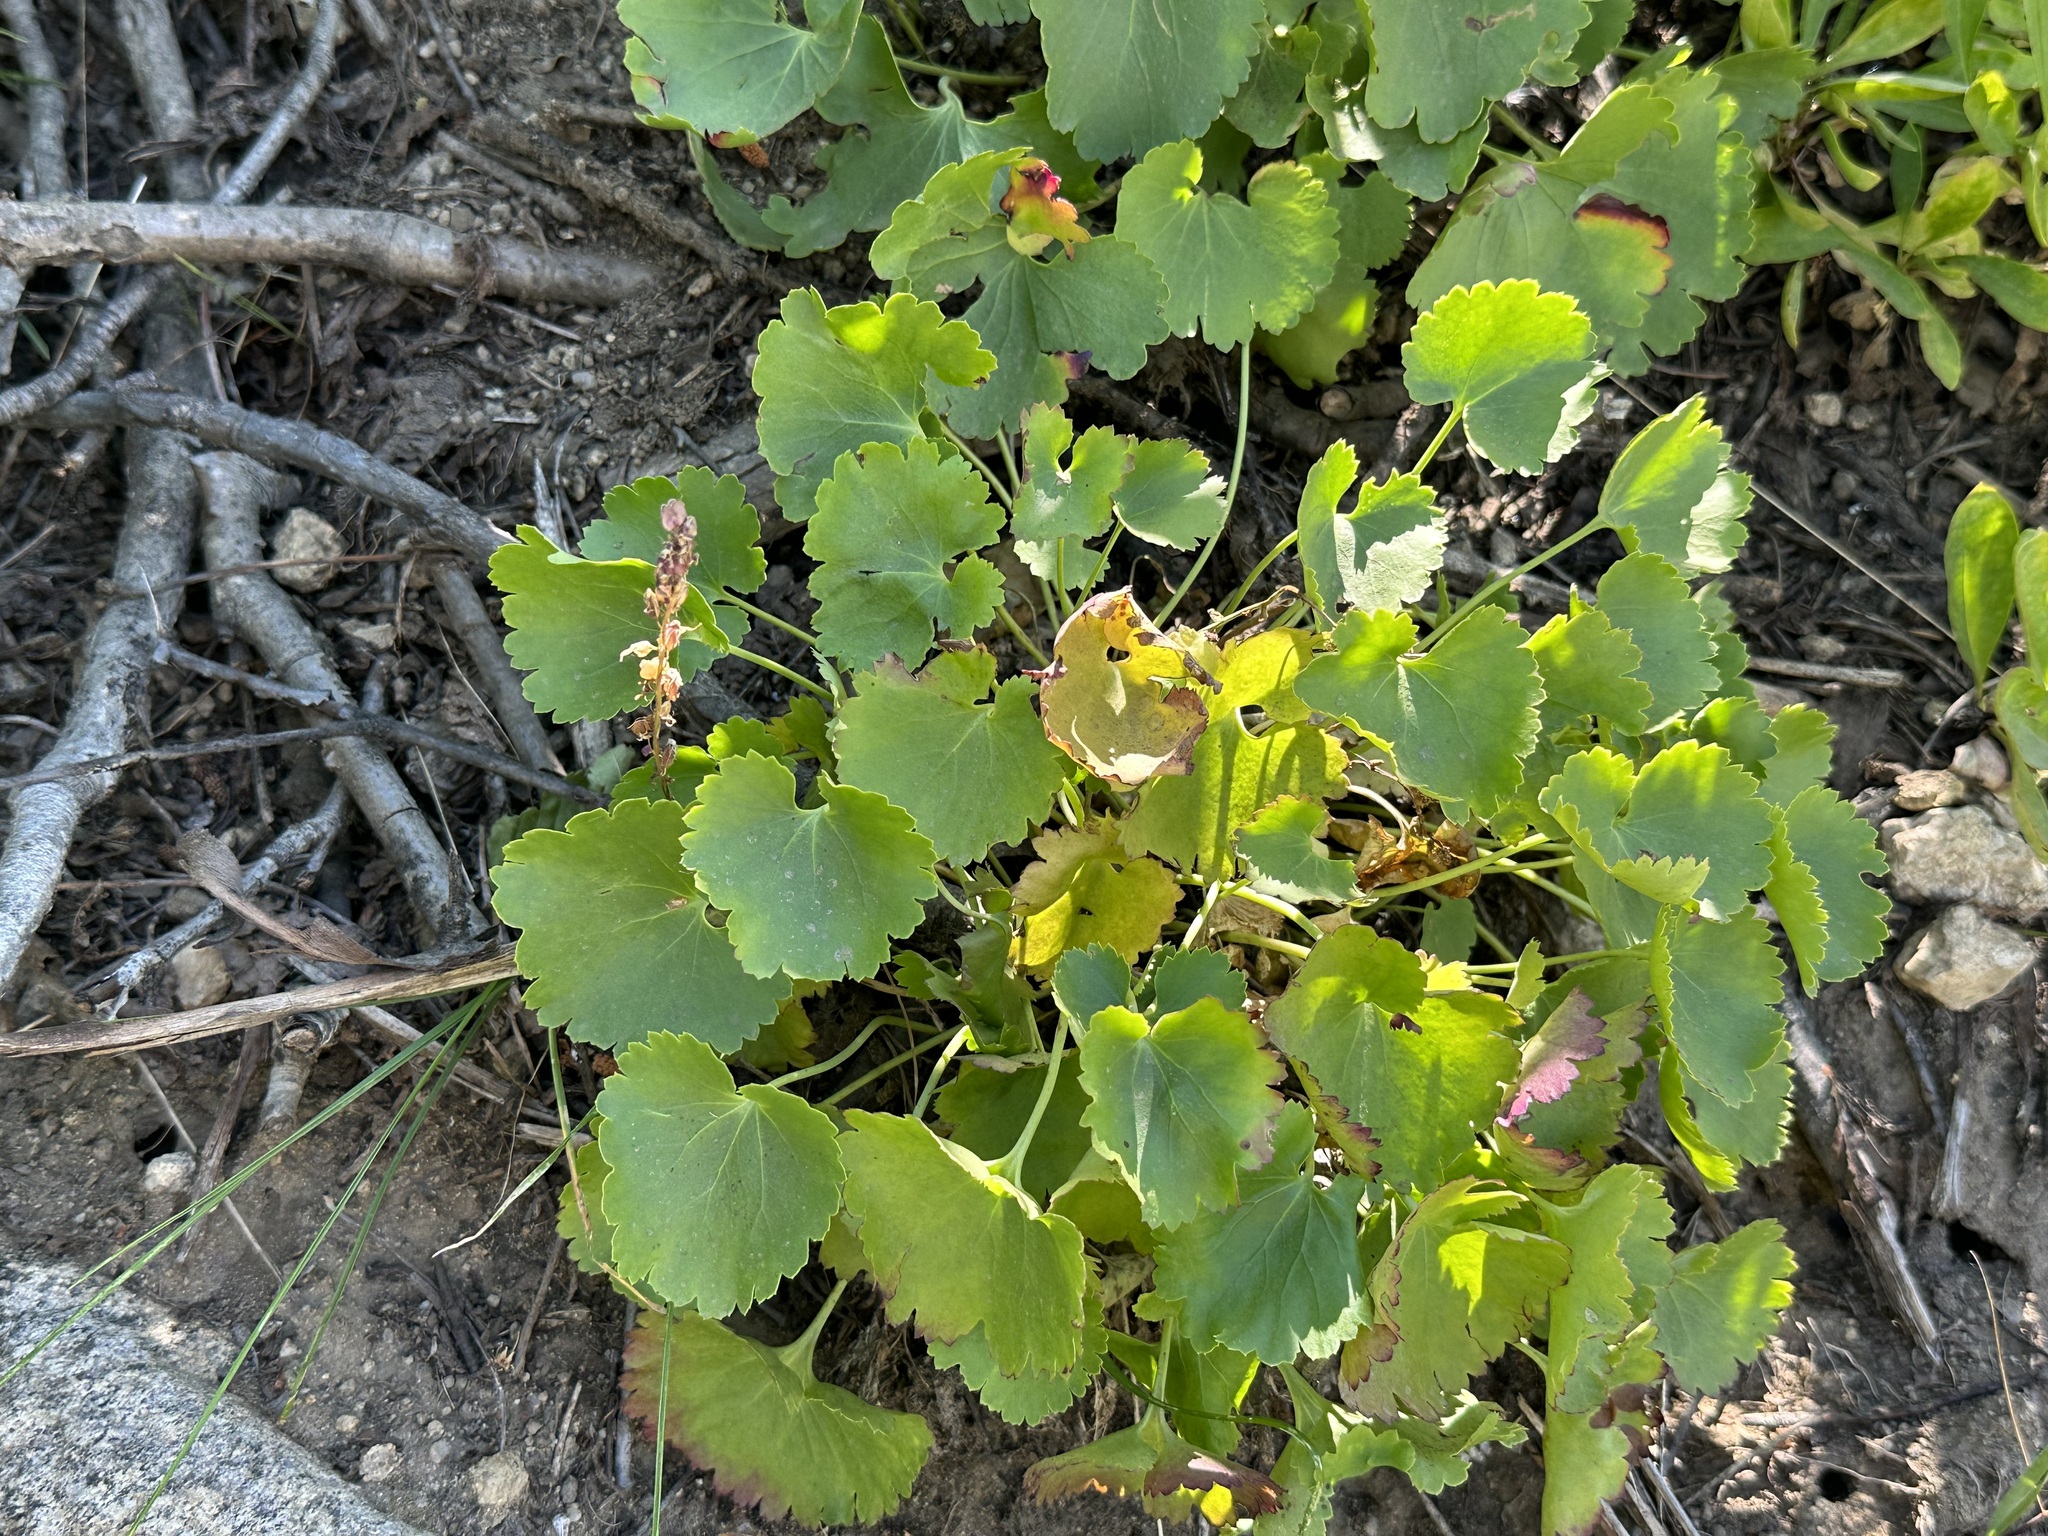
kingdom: Plantae
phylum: Tracheophyta
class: Magnoliopsida
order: Lamiales
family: Plantaginaceae
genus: Synthyris
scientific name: Synthyris missurica
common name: Kitten-tails
